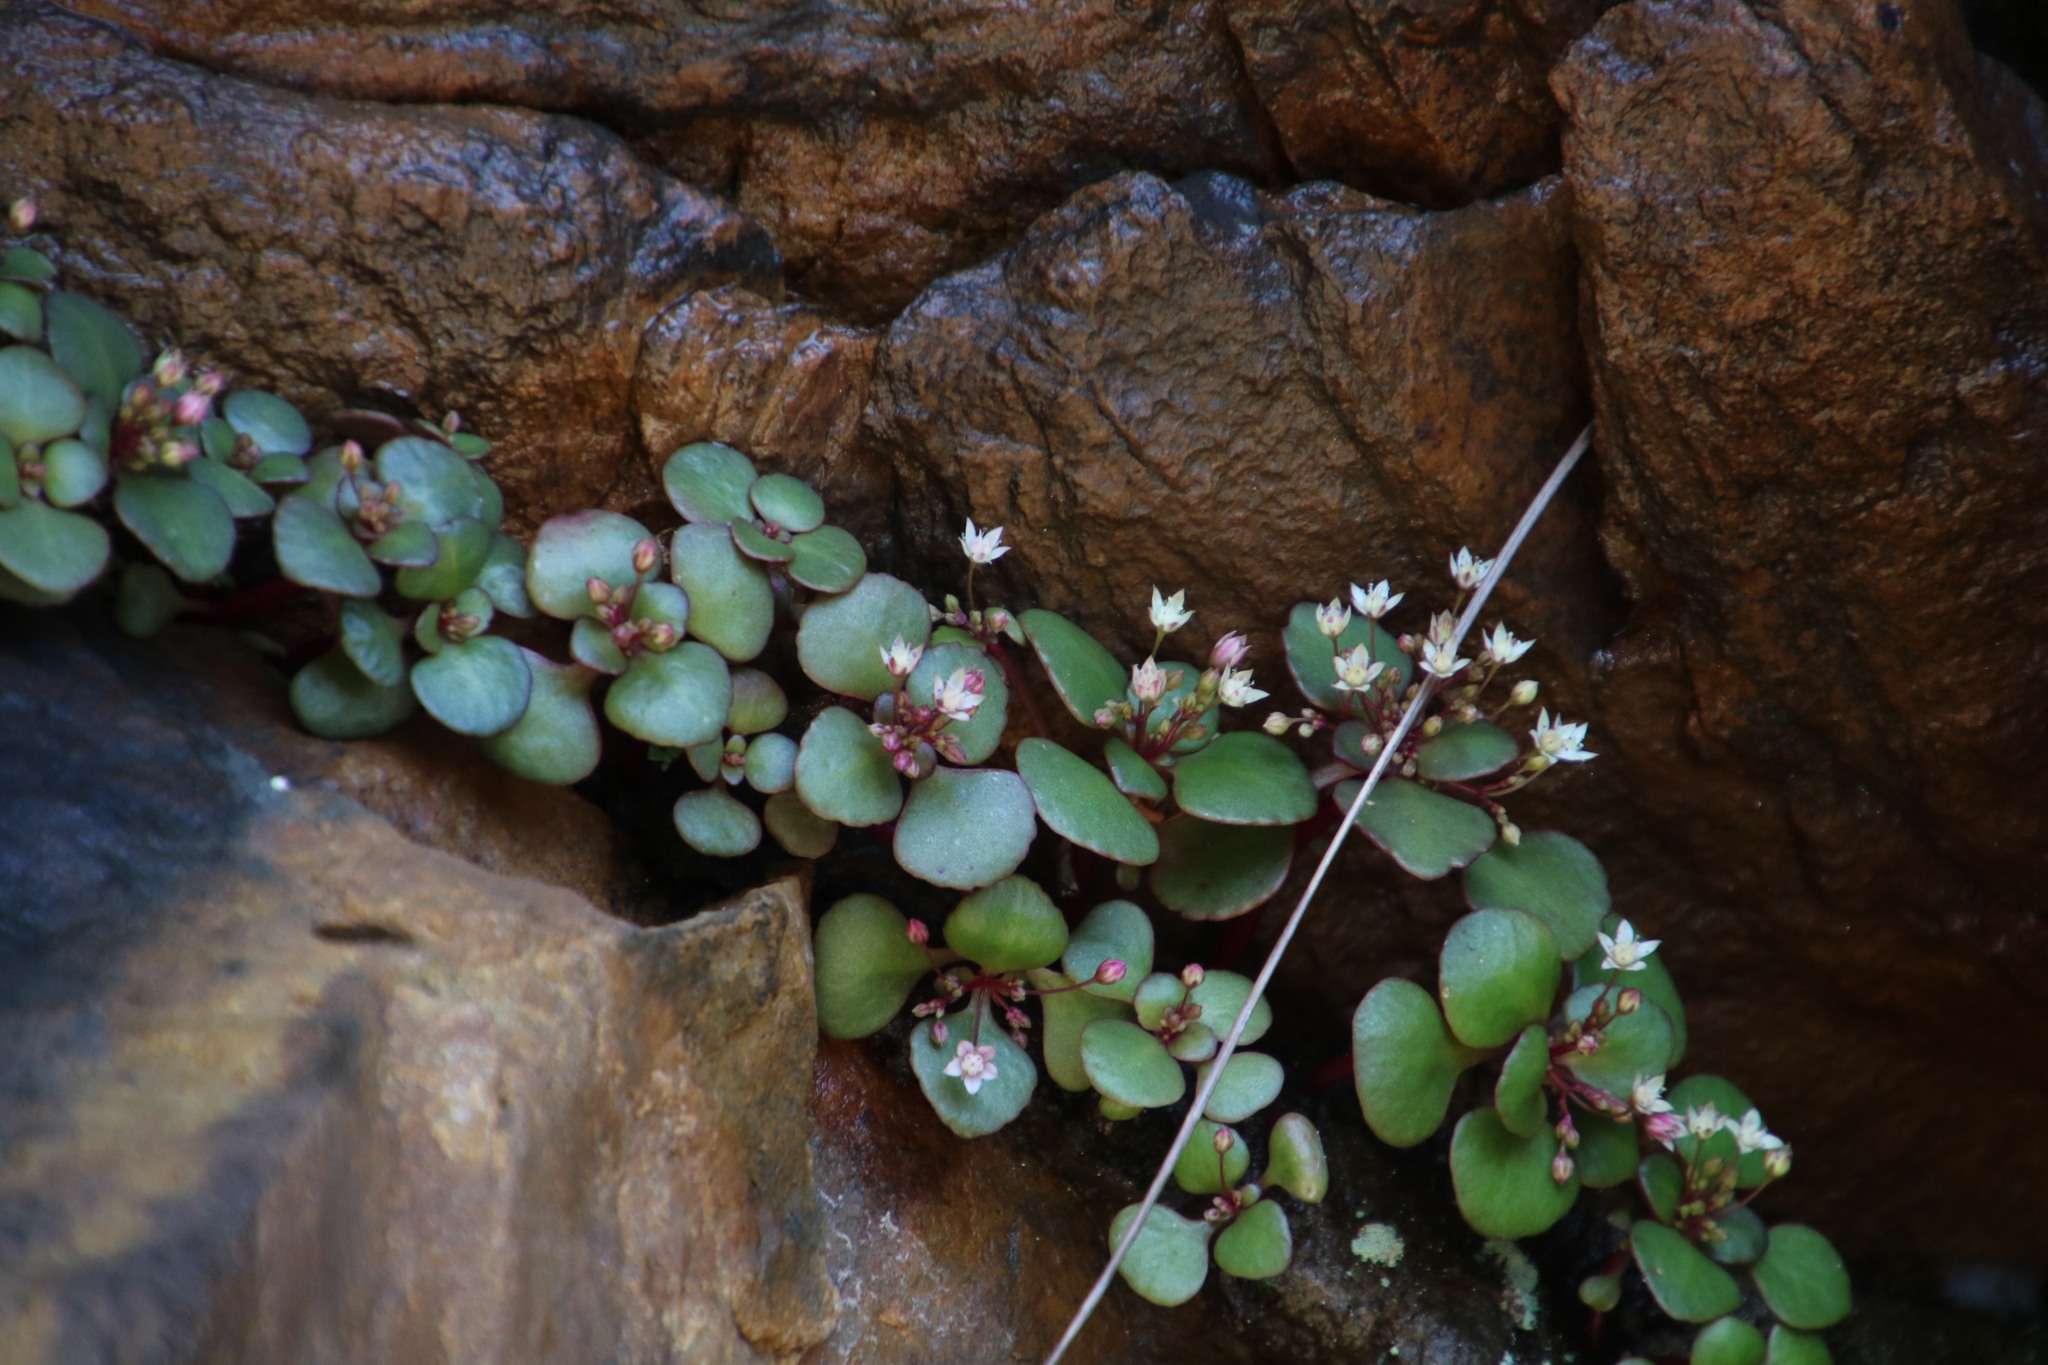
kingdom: Plantae
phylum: Tracheophyta
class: Magnoliopsida
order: Saxifragales
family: Crassulaceae
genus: Crassula
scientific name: Crassula capensis
